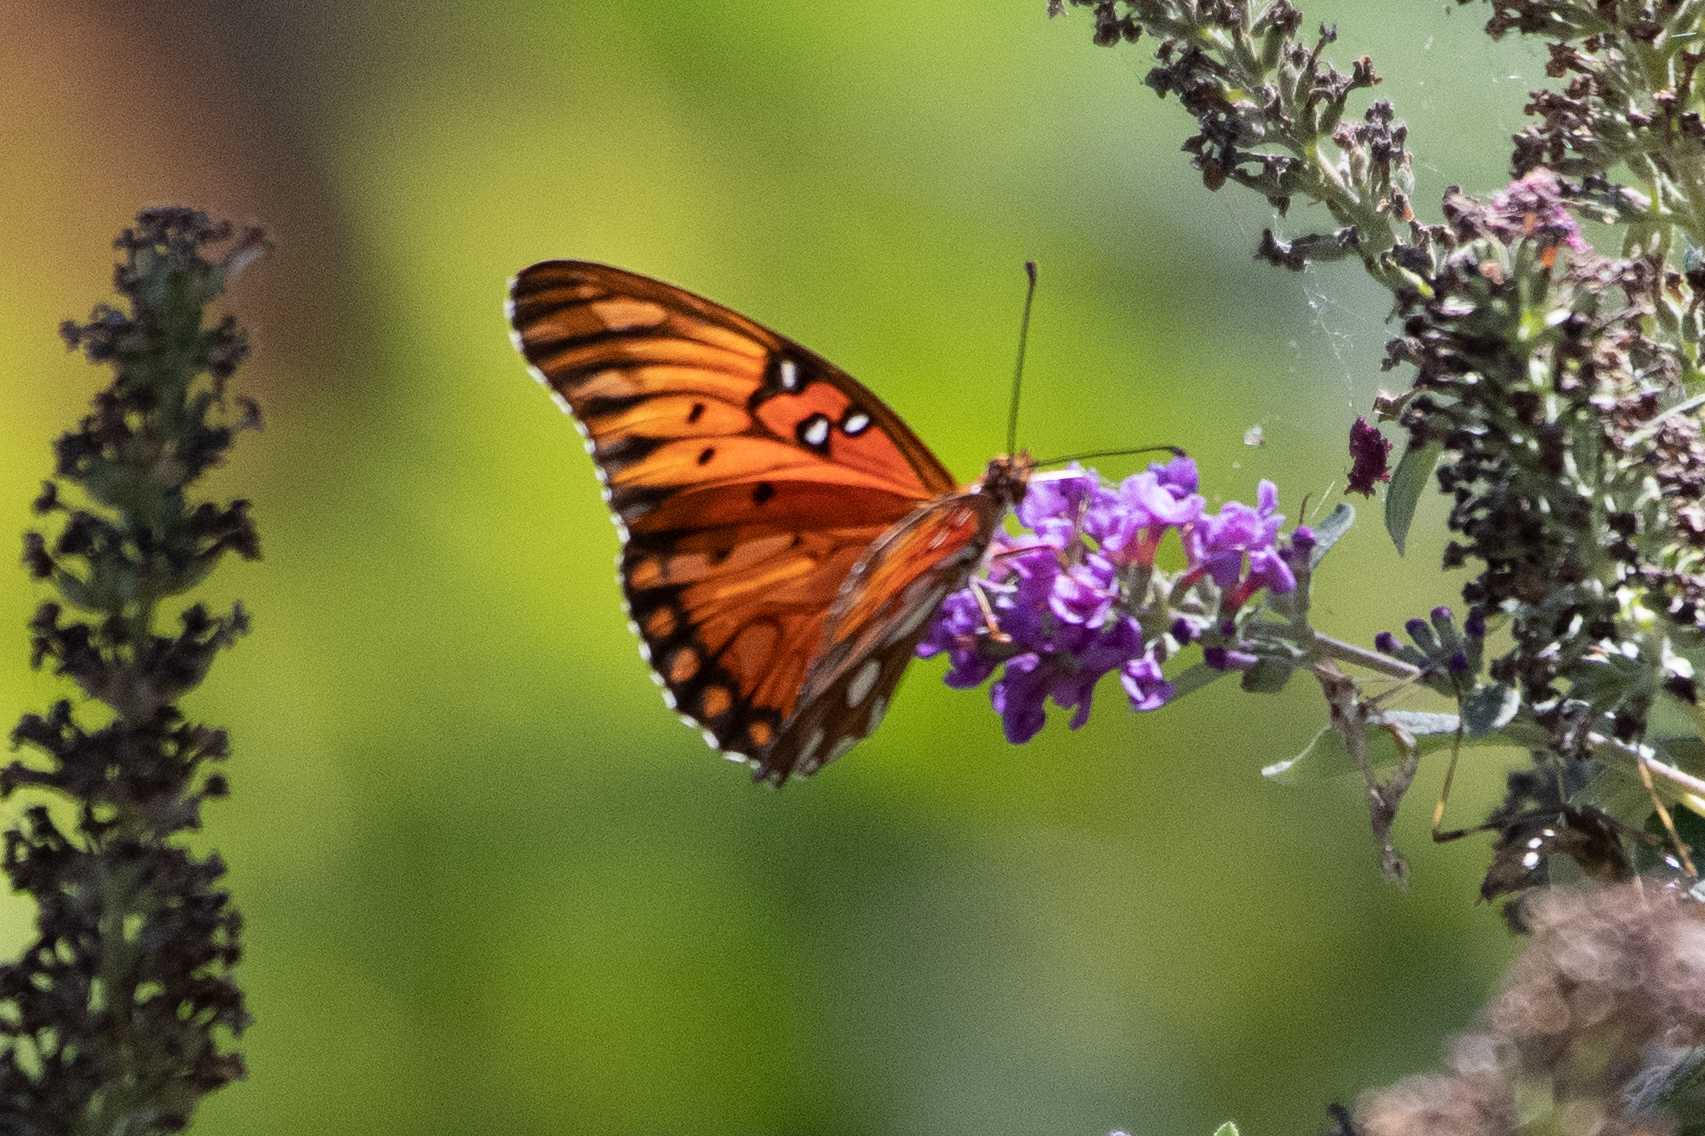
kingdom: Animalia
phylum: Arthropoda
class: Insecta
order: Lepidoptera
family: Nymphalidae
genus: Dione
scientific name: Dione vanillae
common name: Gulf fritillary
